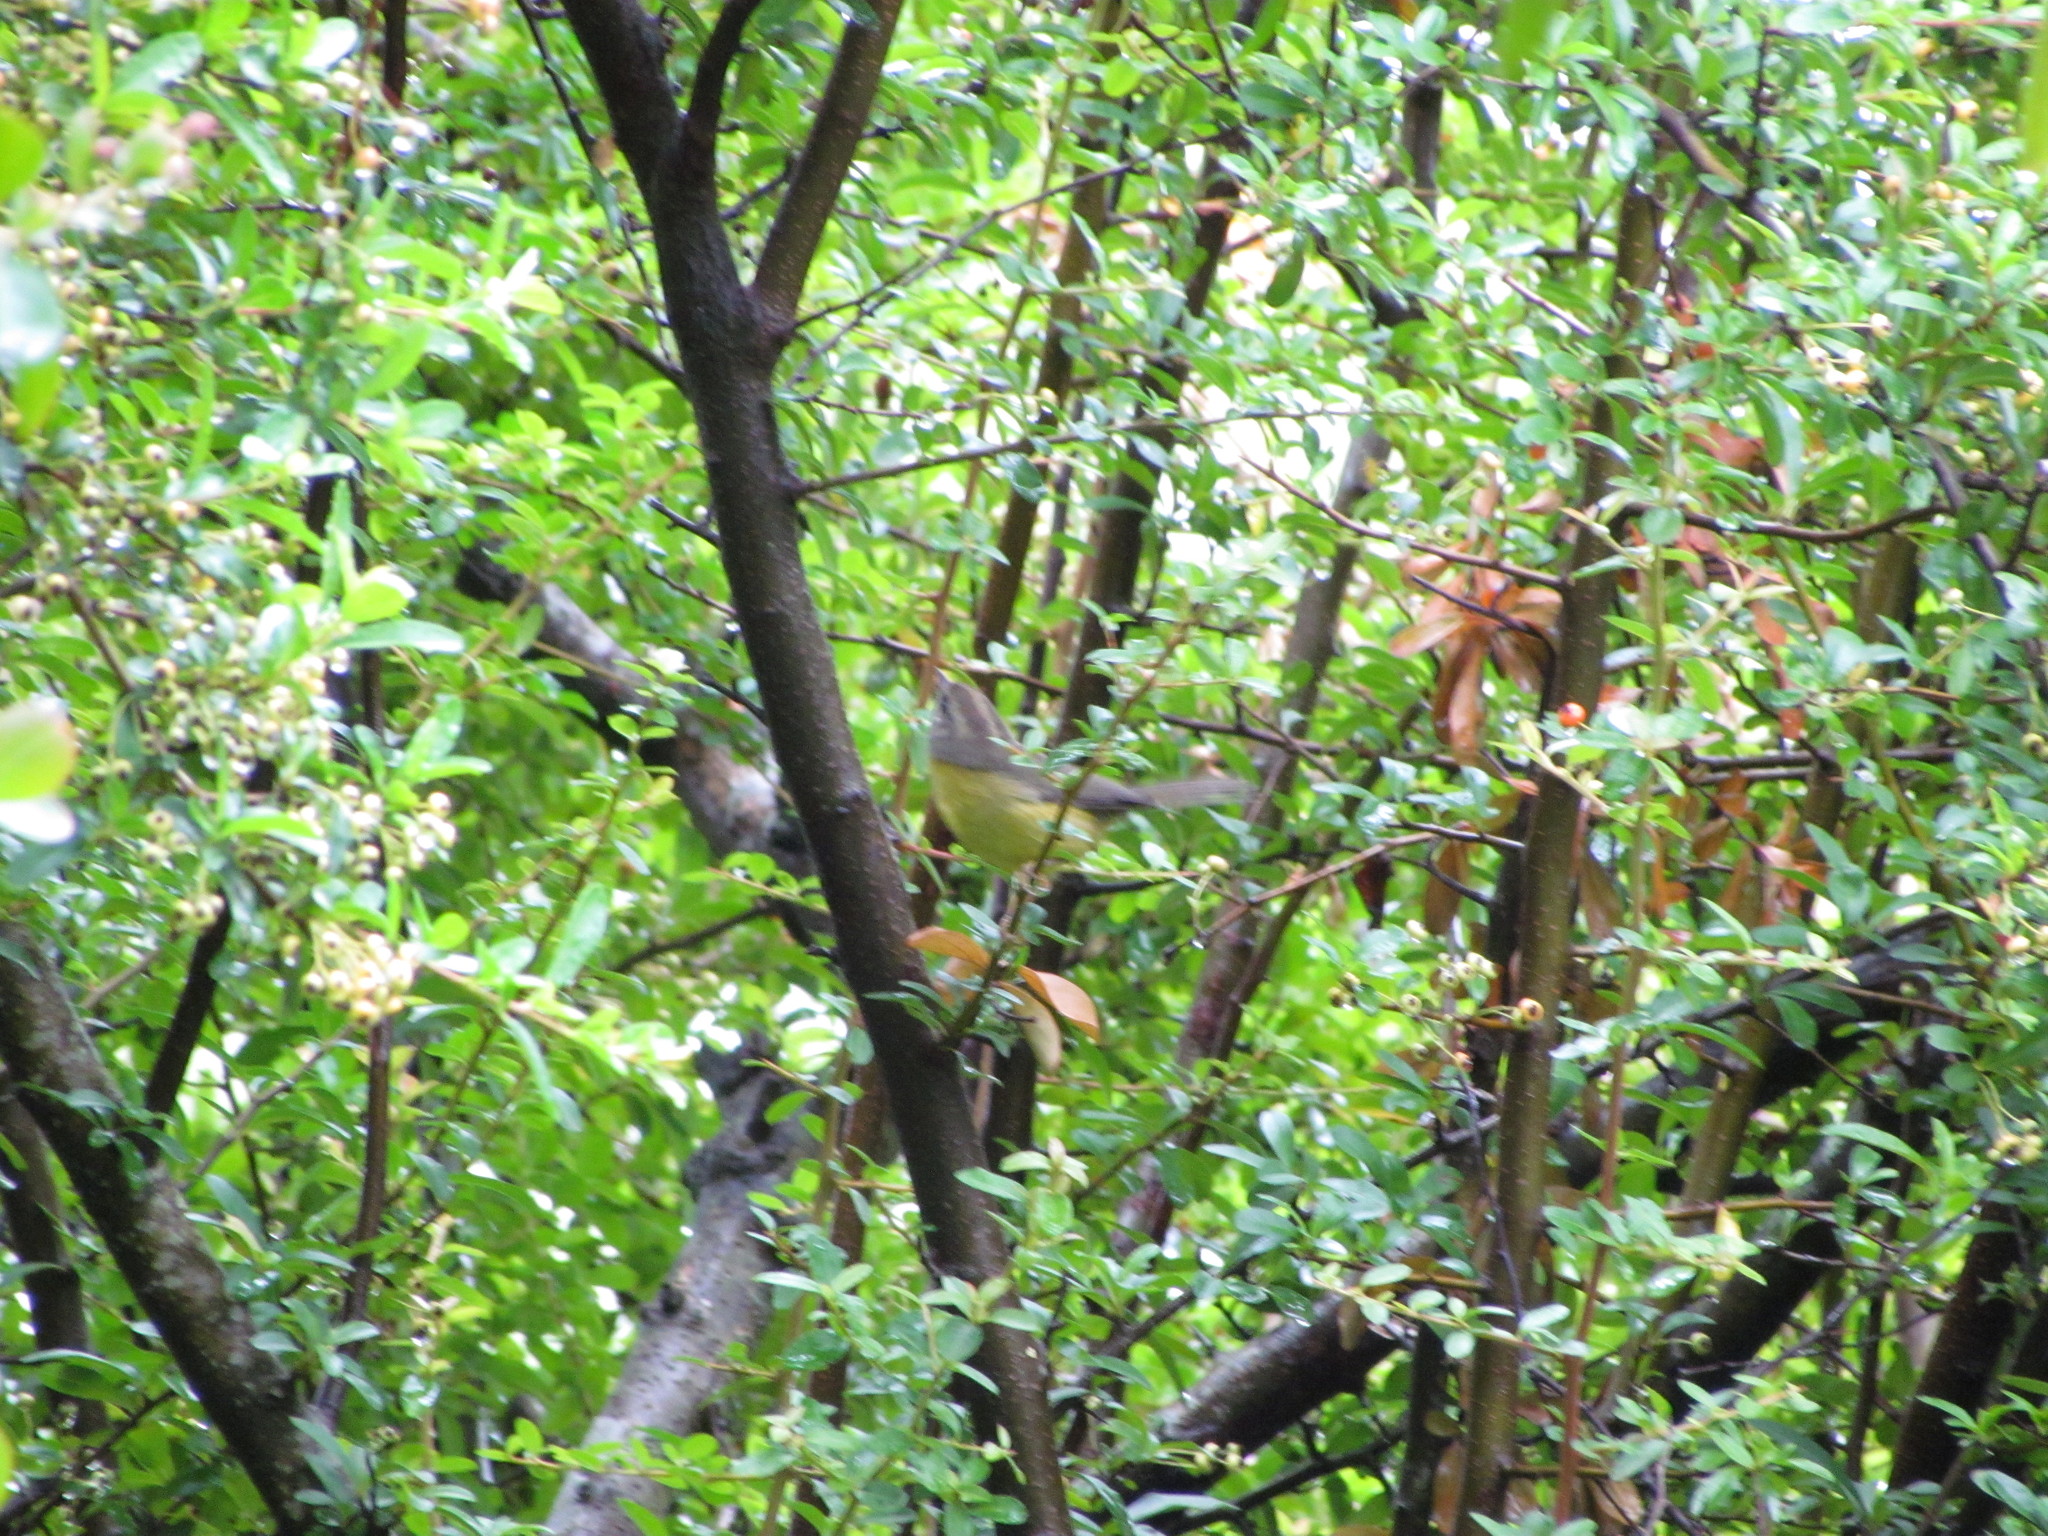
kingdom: Animalia
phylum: Chordata
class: Aves
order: Passeriformes
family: Parulidae
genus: Basileuterus
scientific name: Basileuterus culicivorus
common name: Golden-crowned warbler
